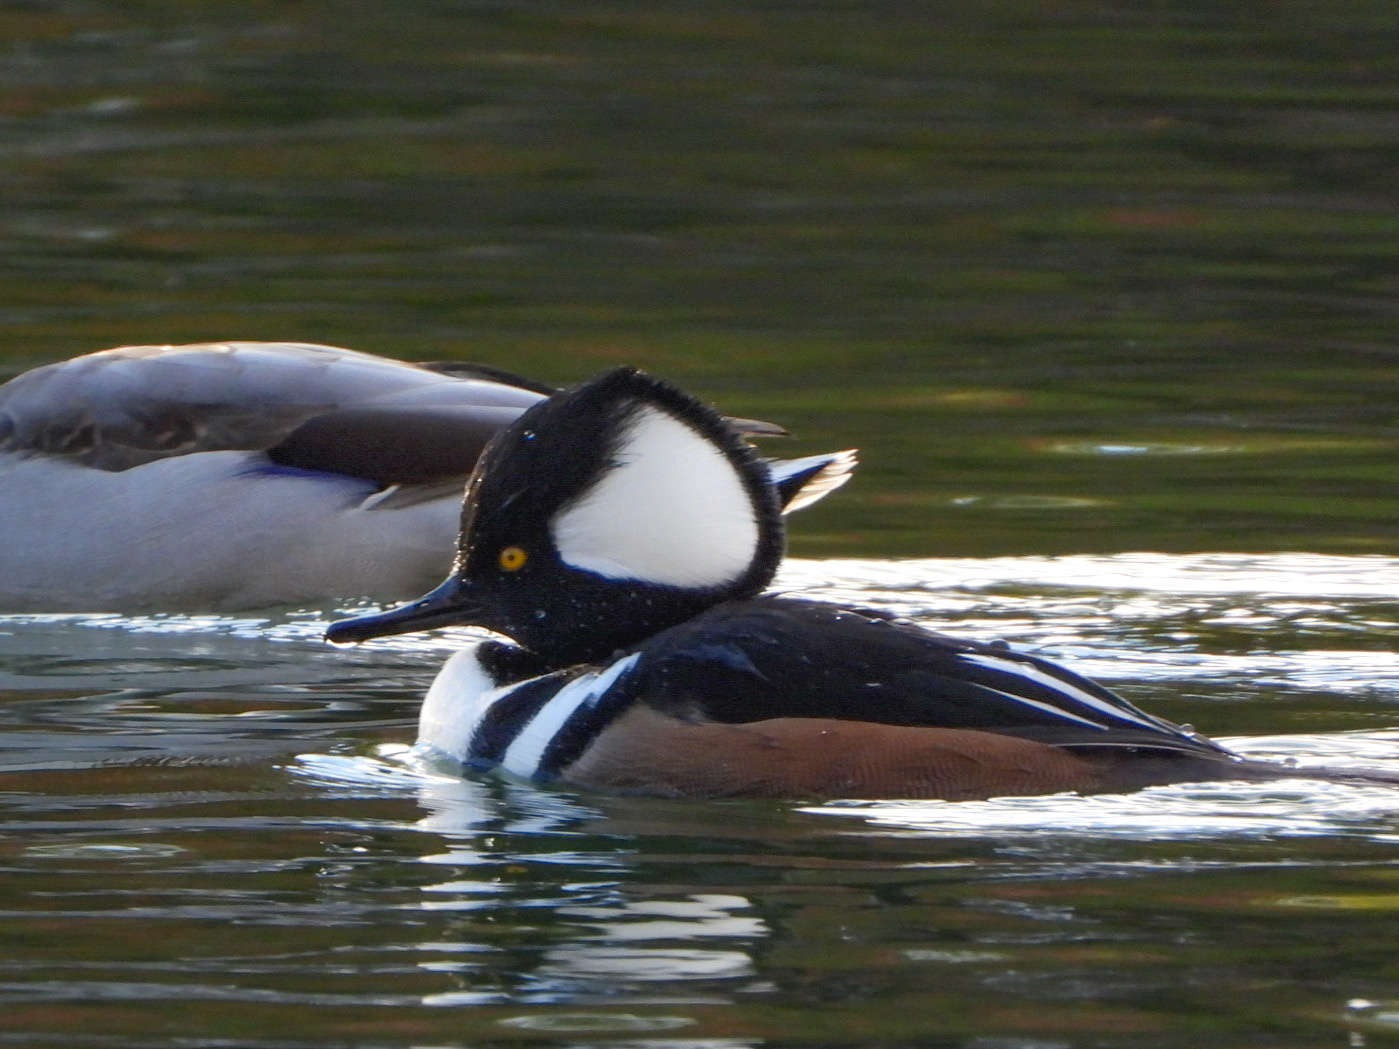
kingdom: Animalia
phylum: Chordata
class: Aves
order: Anseriformes
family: Anatidae
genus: Lophodytes
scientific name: Lophodytes cucullatus
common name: Hooded merganser
